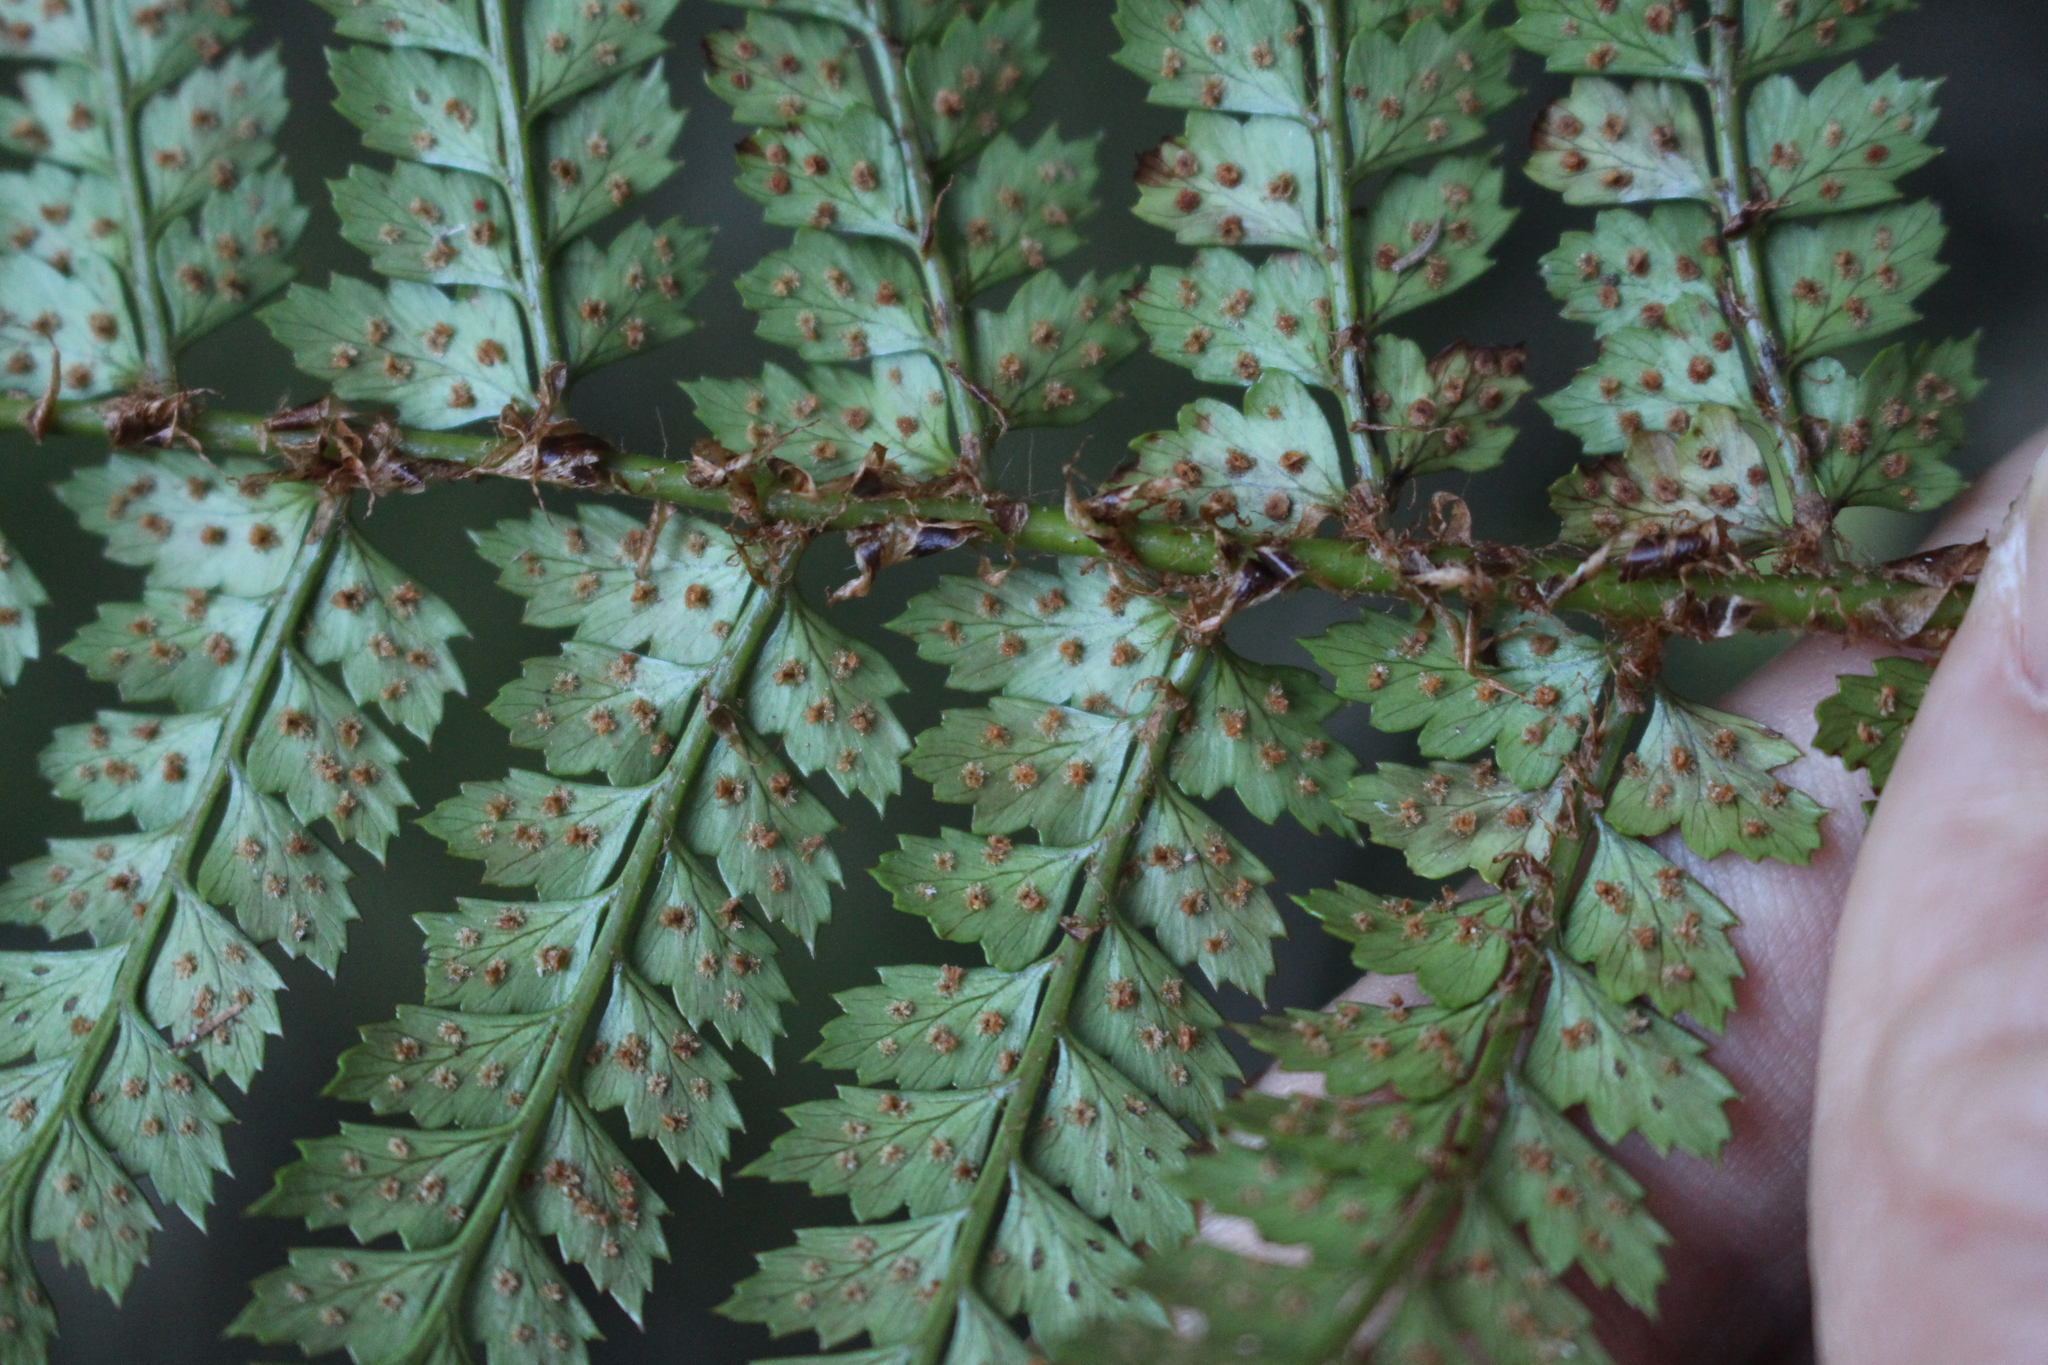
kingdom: Plantae
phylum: Tracheophyta
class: Polypodiopsida
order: Polypodiales
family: Dryopteridaceae
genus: Polystichum
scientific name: Polystichum vestitum
